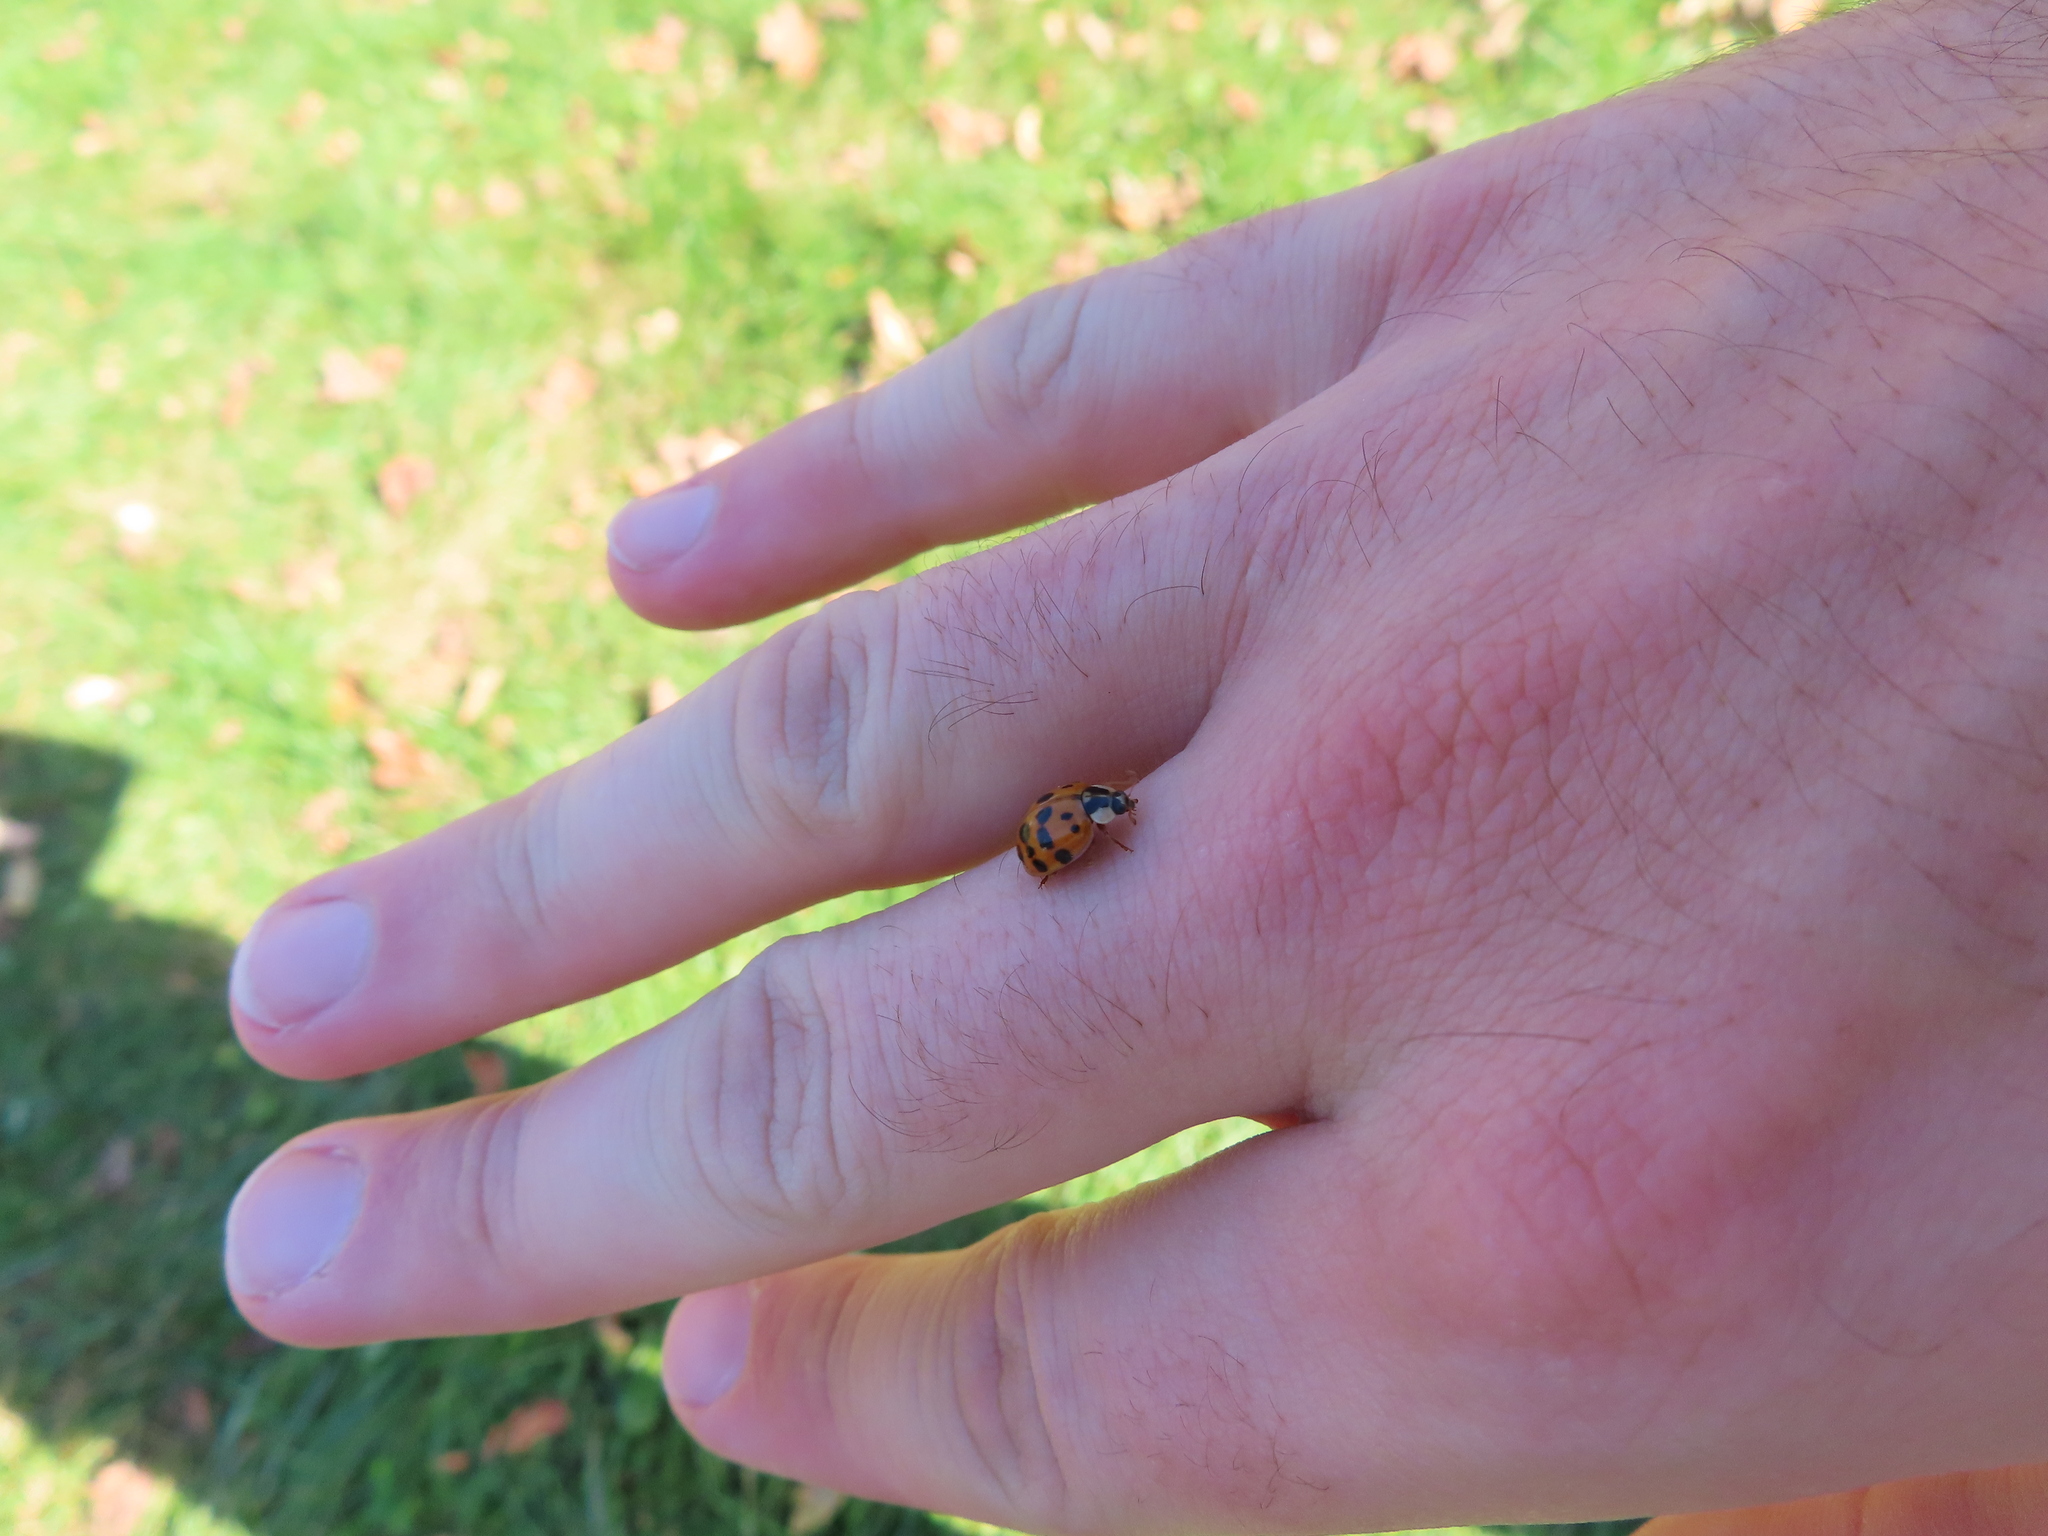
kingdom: Animalia
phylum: Arthropoda
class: Insecta
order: Coleoptera
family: Coccinellidae
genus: Harmonia
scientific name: Harmonia axyridis
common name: Harlequin ladybird
